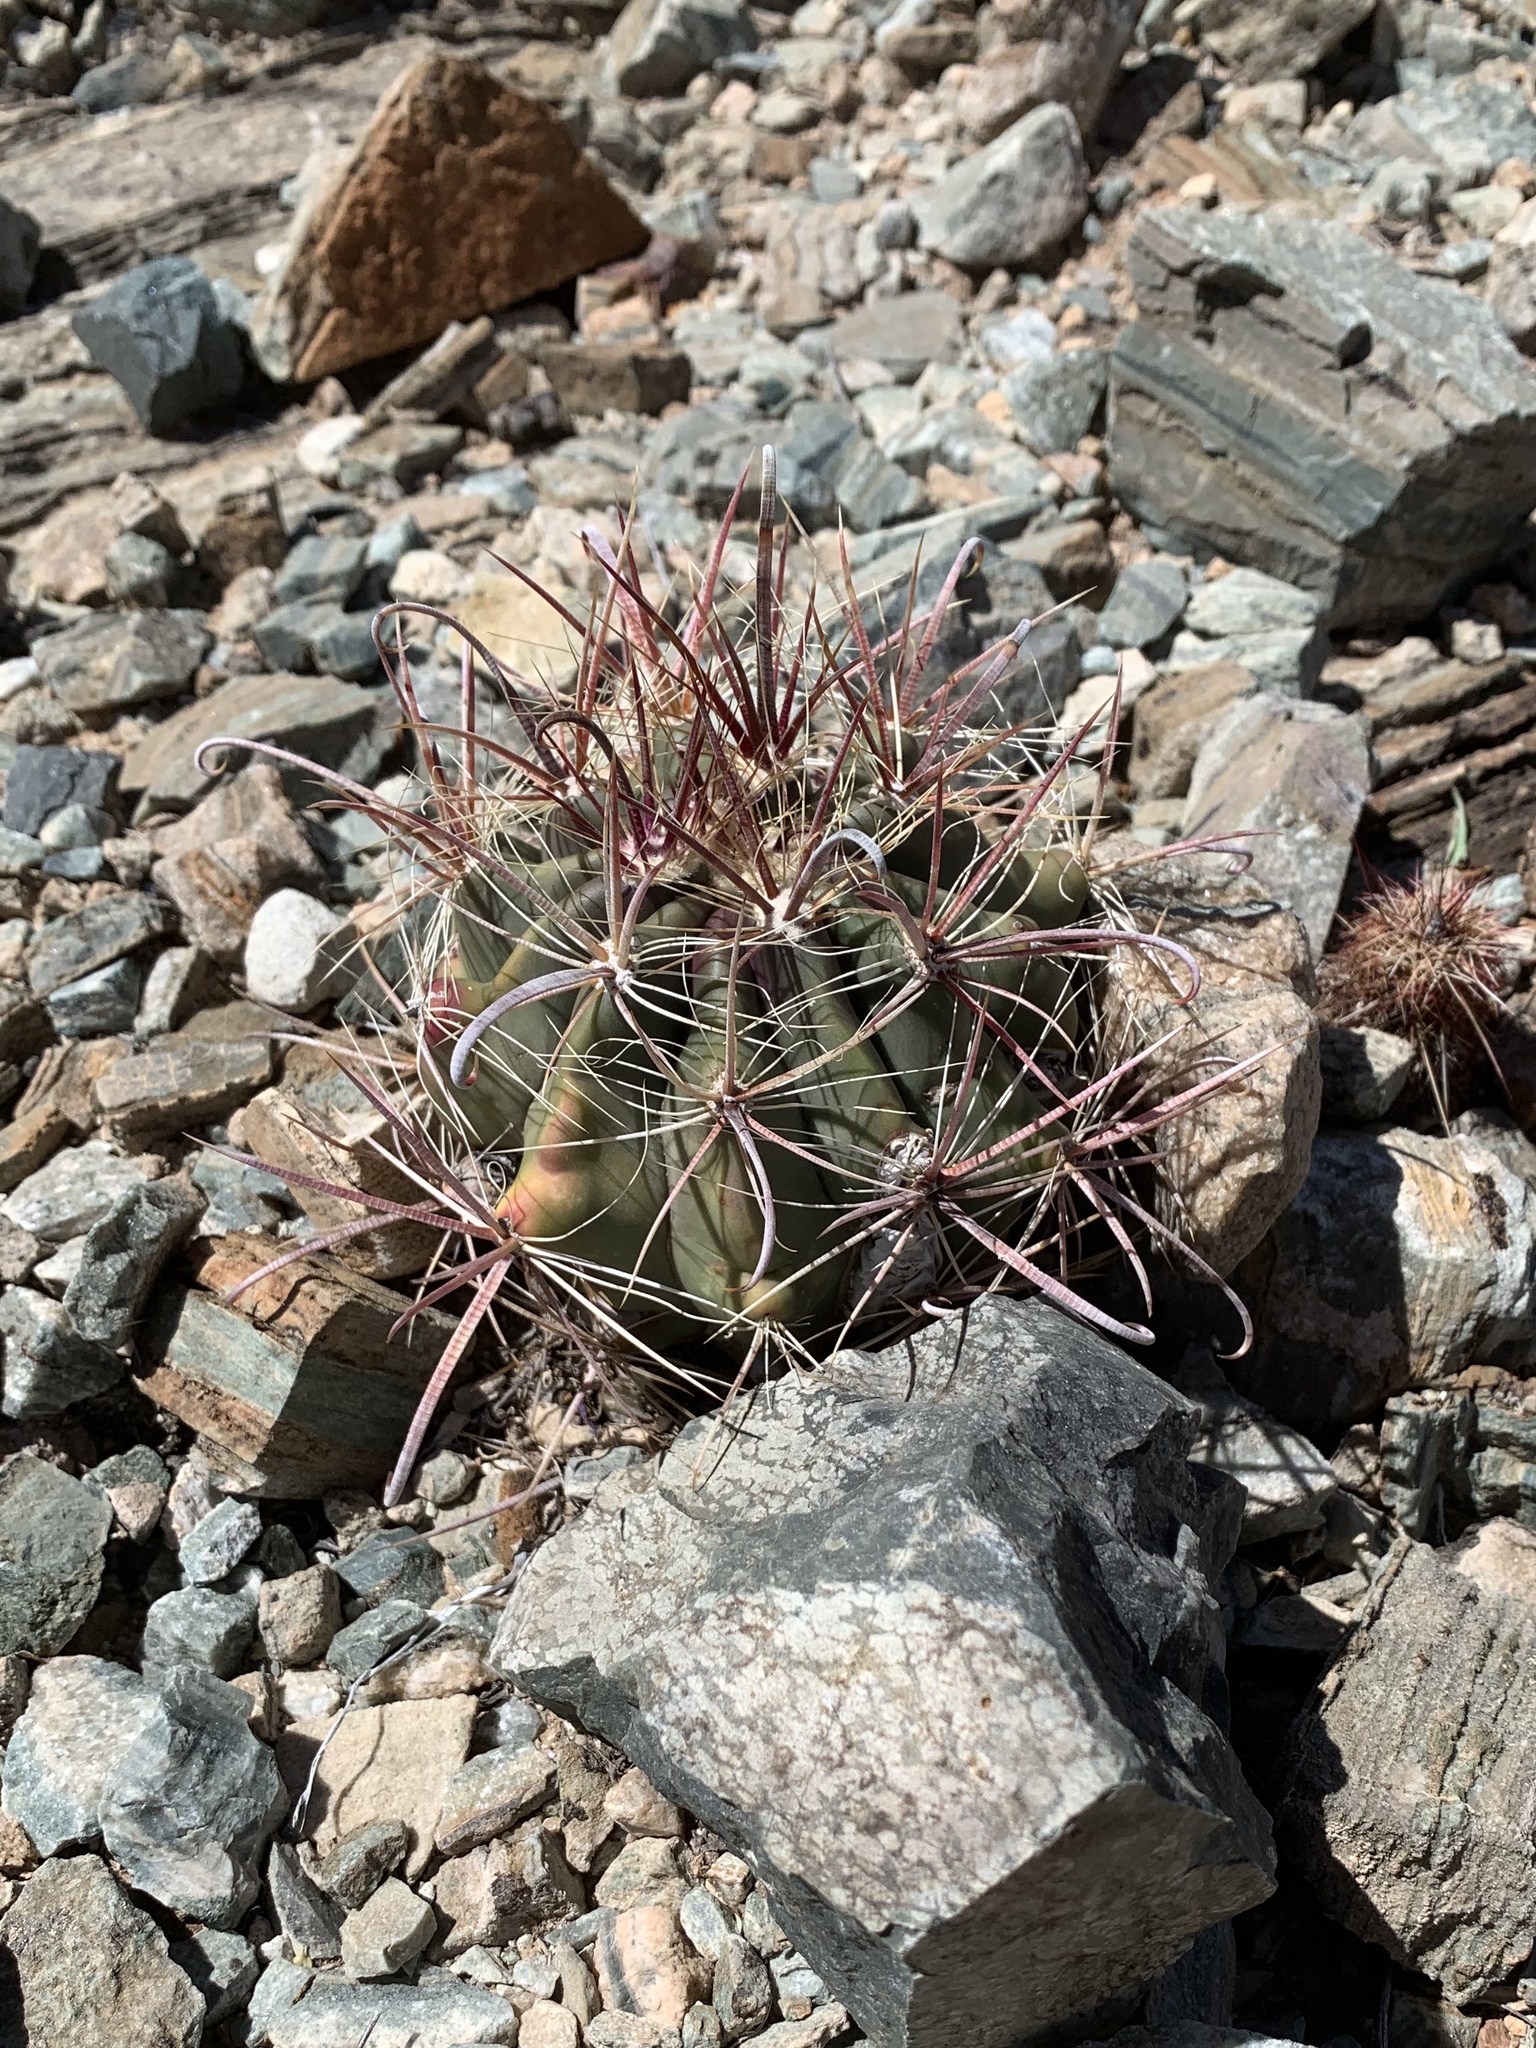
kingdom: Plantae
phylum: Tracheophyta
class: Magnoliopsida
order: Caryophyllales
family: Cactaceae
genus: Ferocactus
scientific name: Ferocactus wislizeni
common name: Candy barrel cactus
